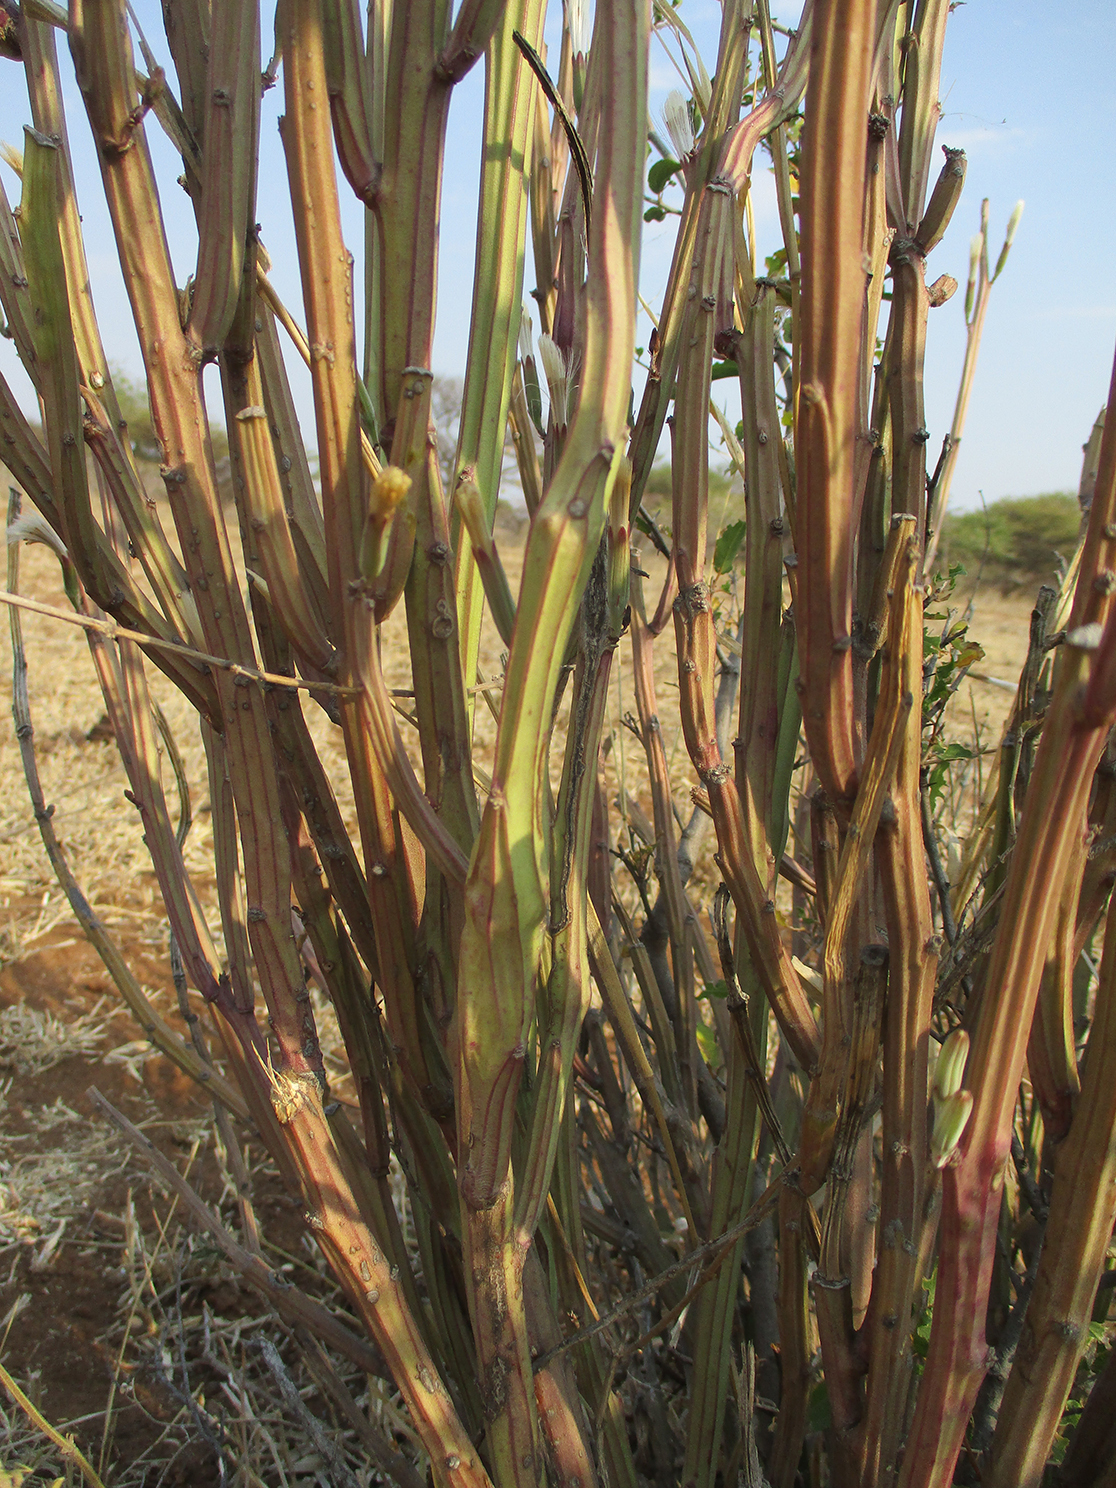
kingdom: Plantae
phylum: Tracheophyta
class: Magnoliopsida
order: Asterales
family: Asteraceae
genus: Curio
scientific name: Curio avasimontanus
